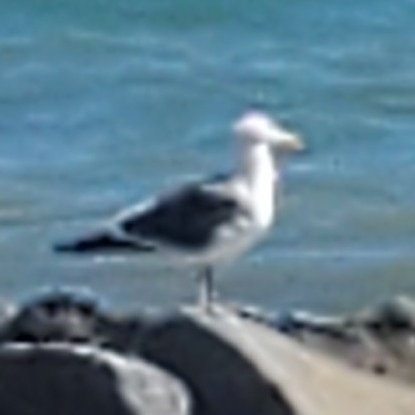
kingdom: Animalia
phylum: Chordata
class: Aves
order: Charadriiformes
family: Laridae
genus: Larus
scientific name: Larus occidentalis
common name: Western gull
